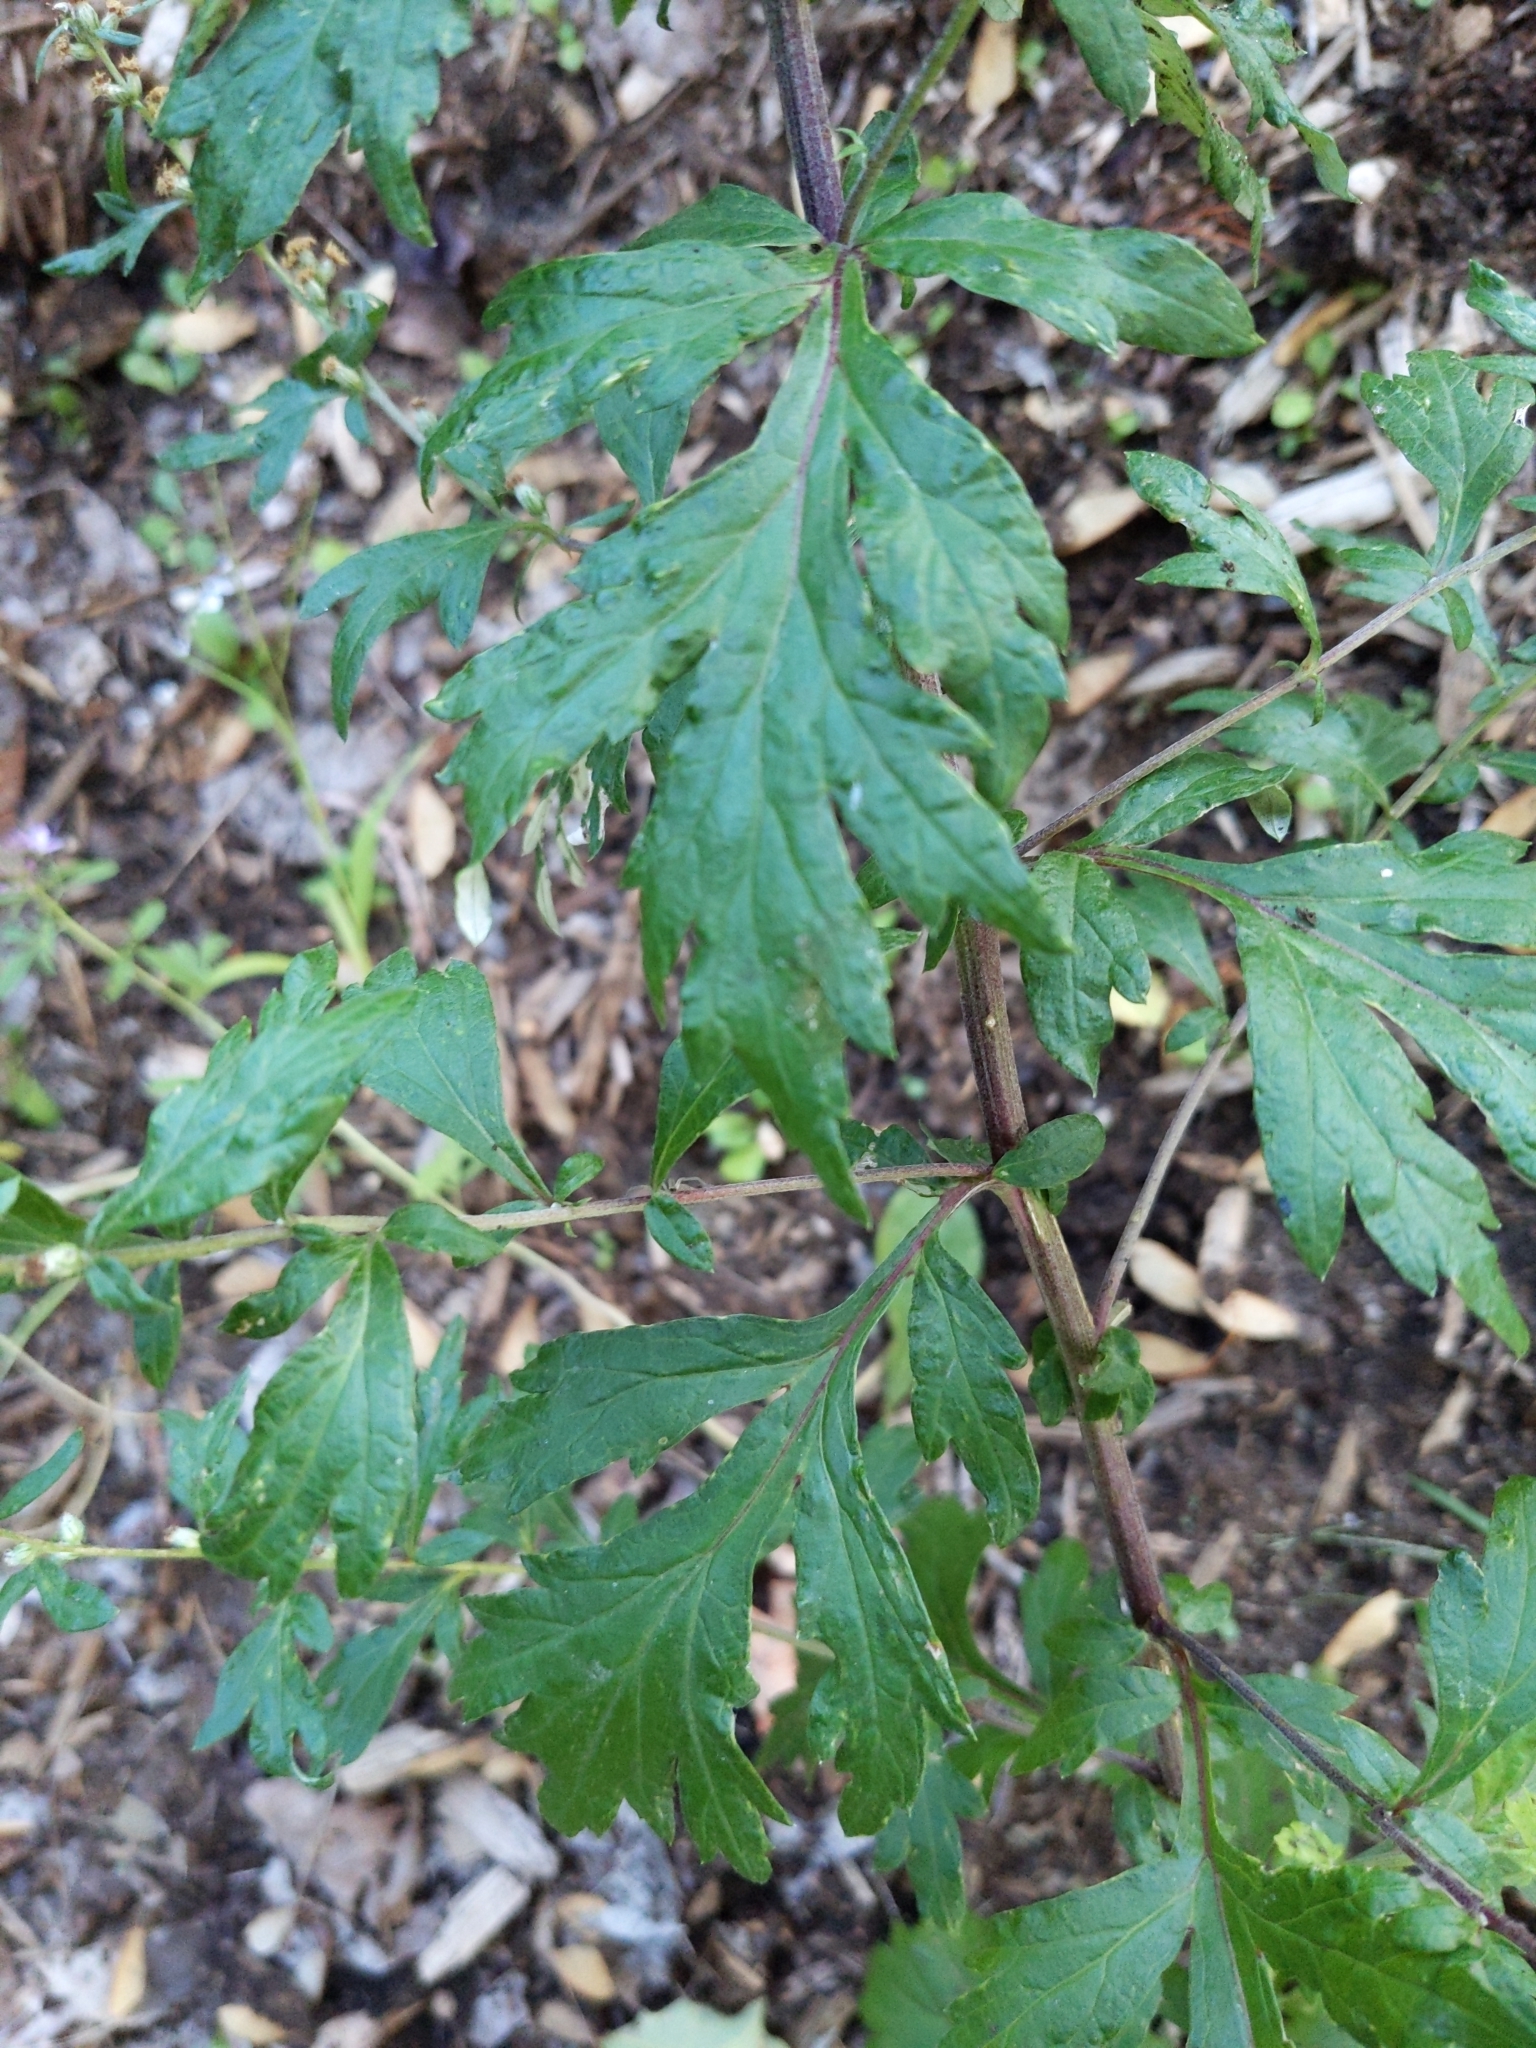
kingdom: Plantae
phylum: Tracheophyta
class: Magnoliopsida
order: Asterales
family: Asteraceae
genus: Artemisia
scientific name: Artemisia vulgaris
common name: Mugwort
